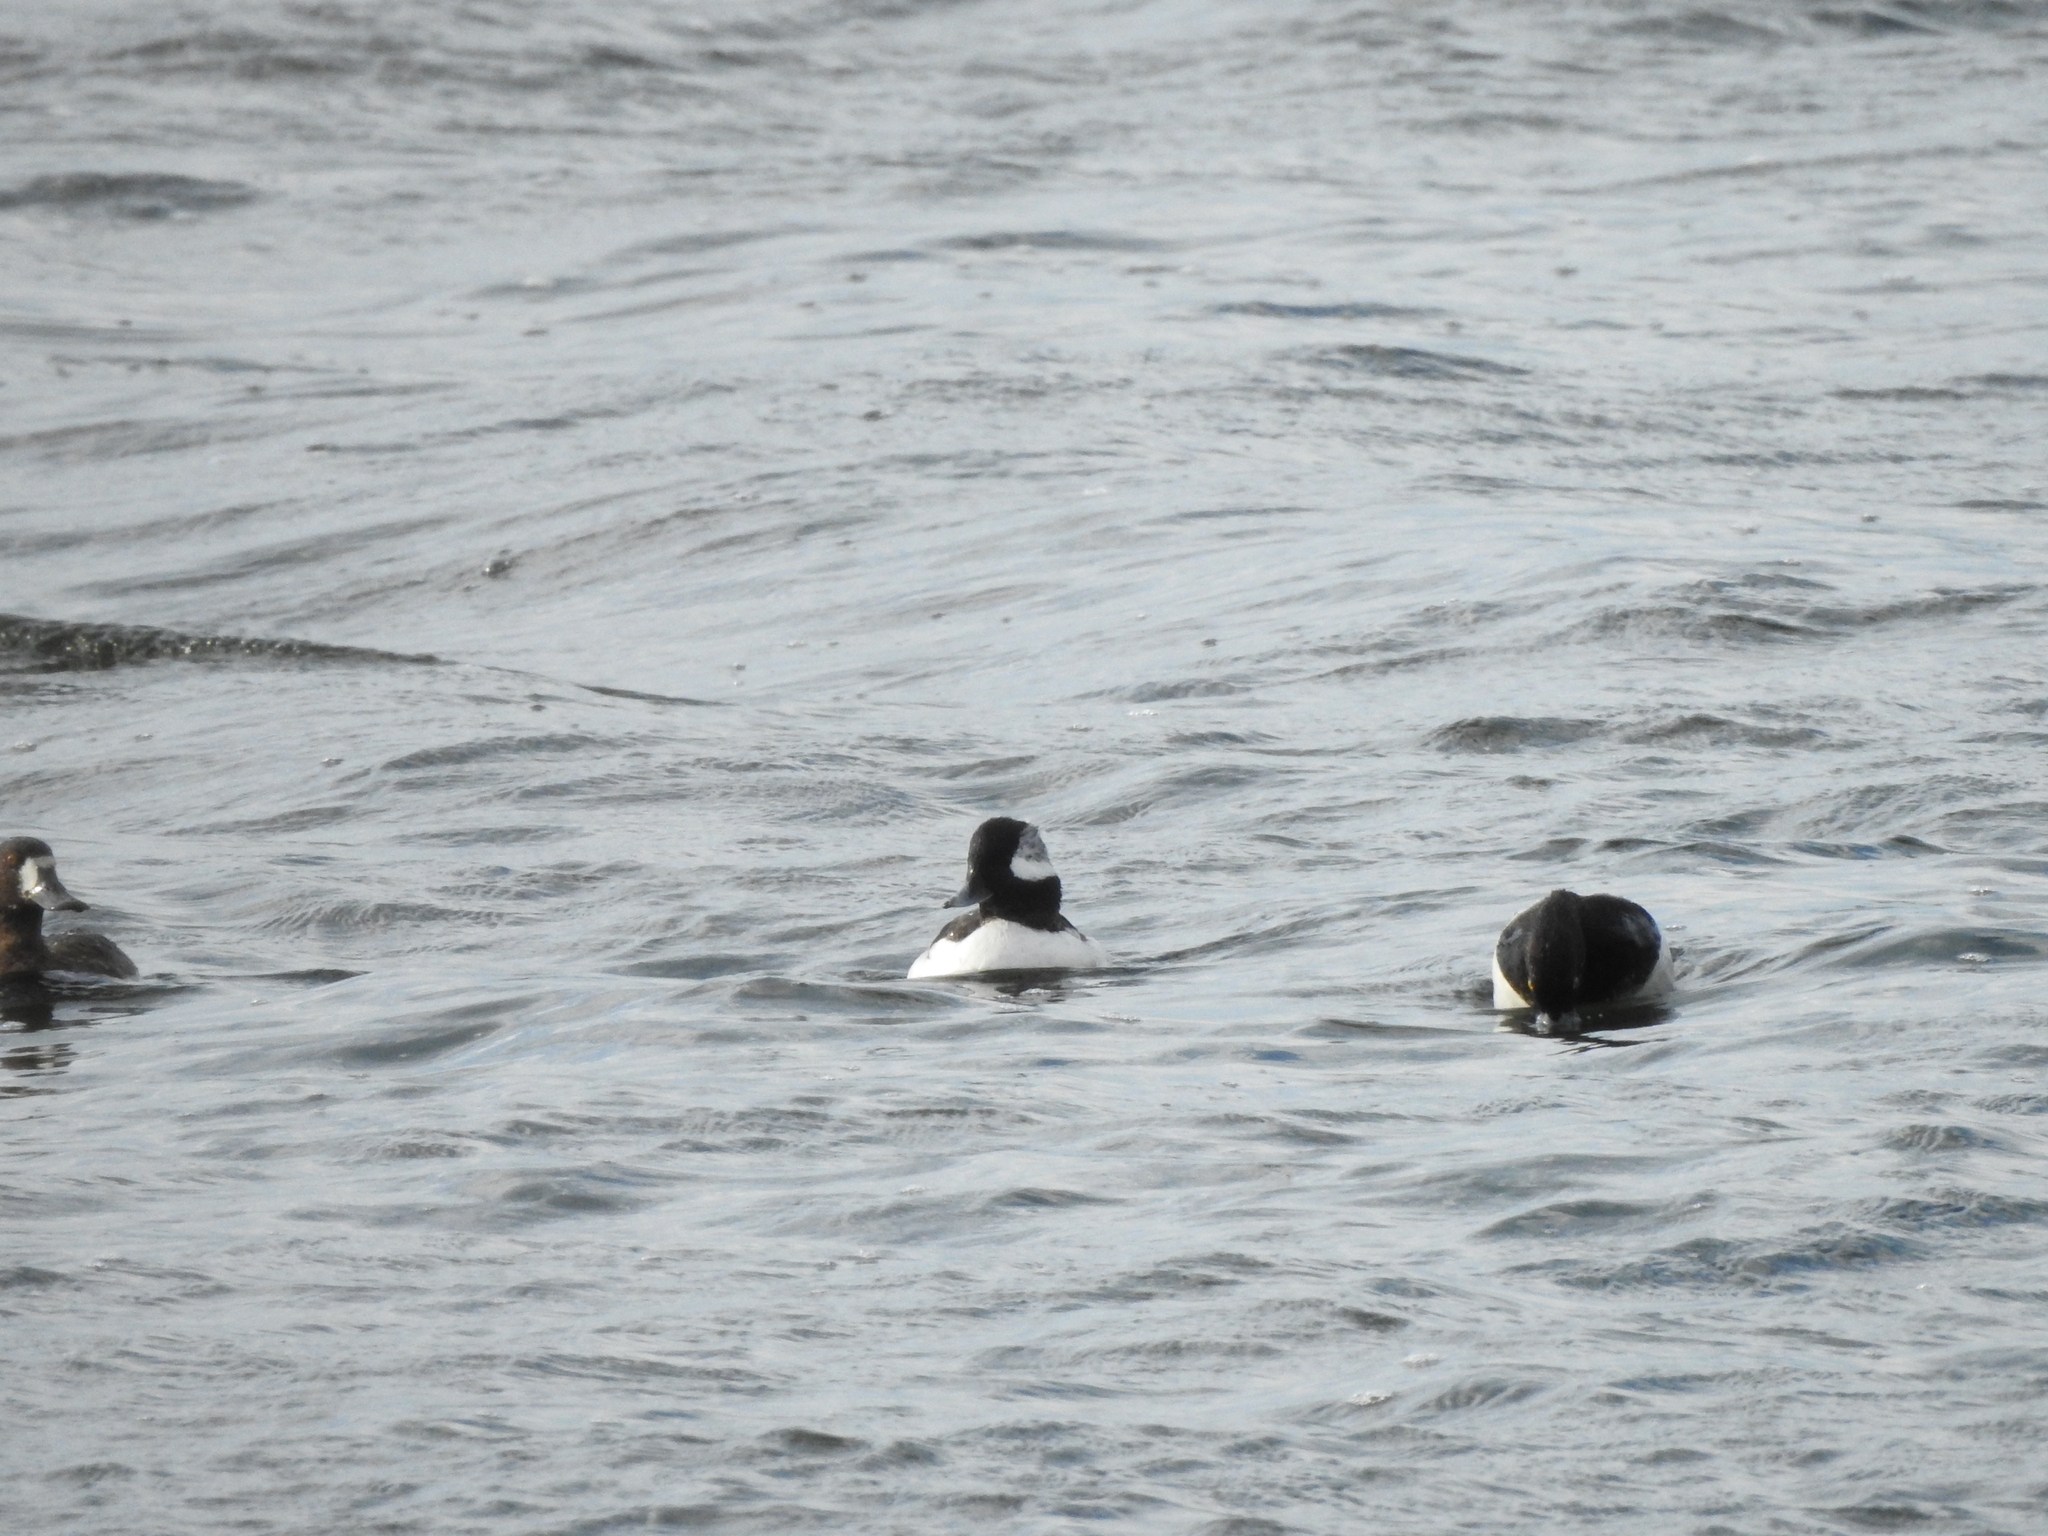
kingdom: Animalia
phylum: Chordata
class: Aves
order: Anseriformes
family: Anatidae
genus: Bucephala
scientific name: Bucephala albeola
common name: Bufflehead
